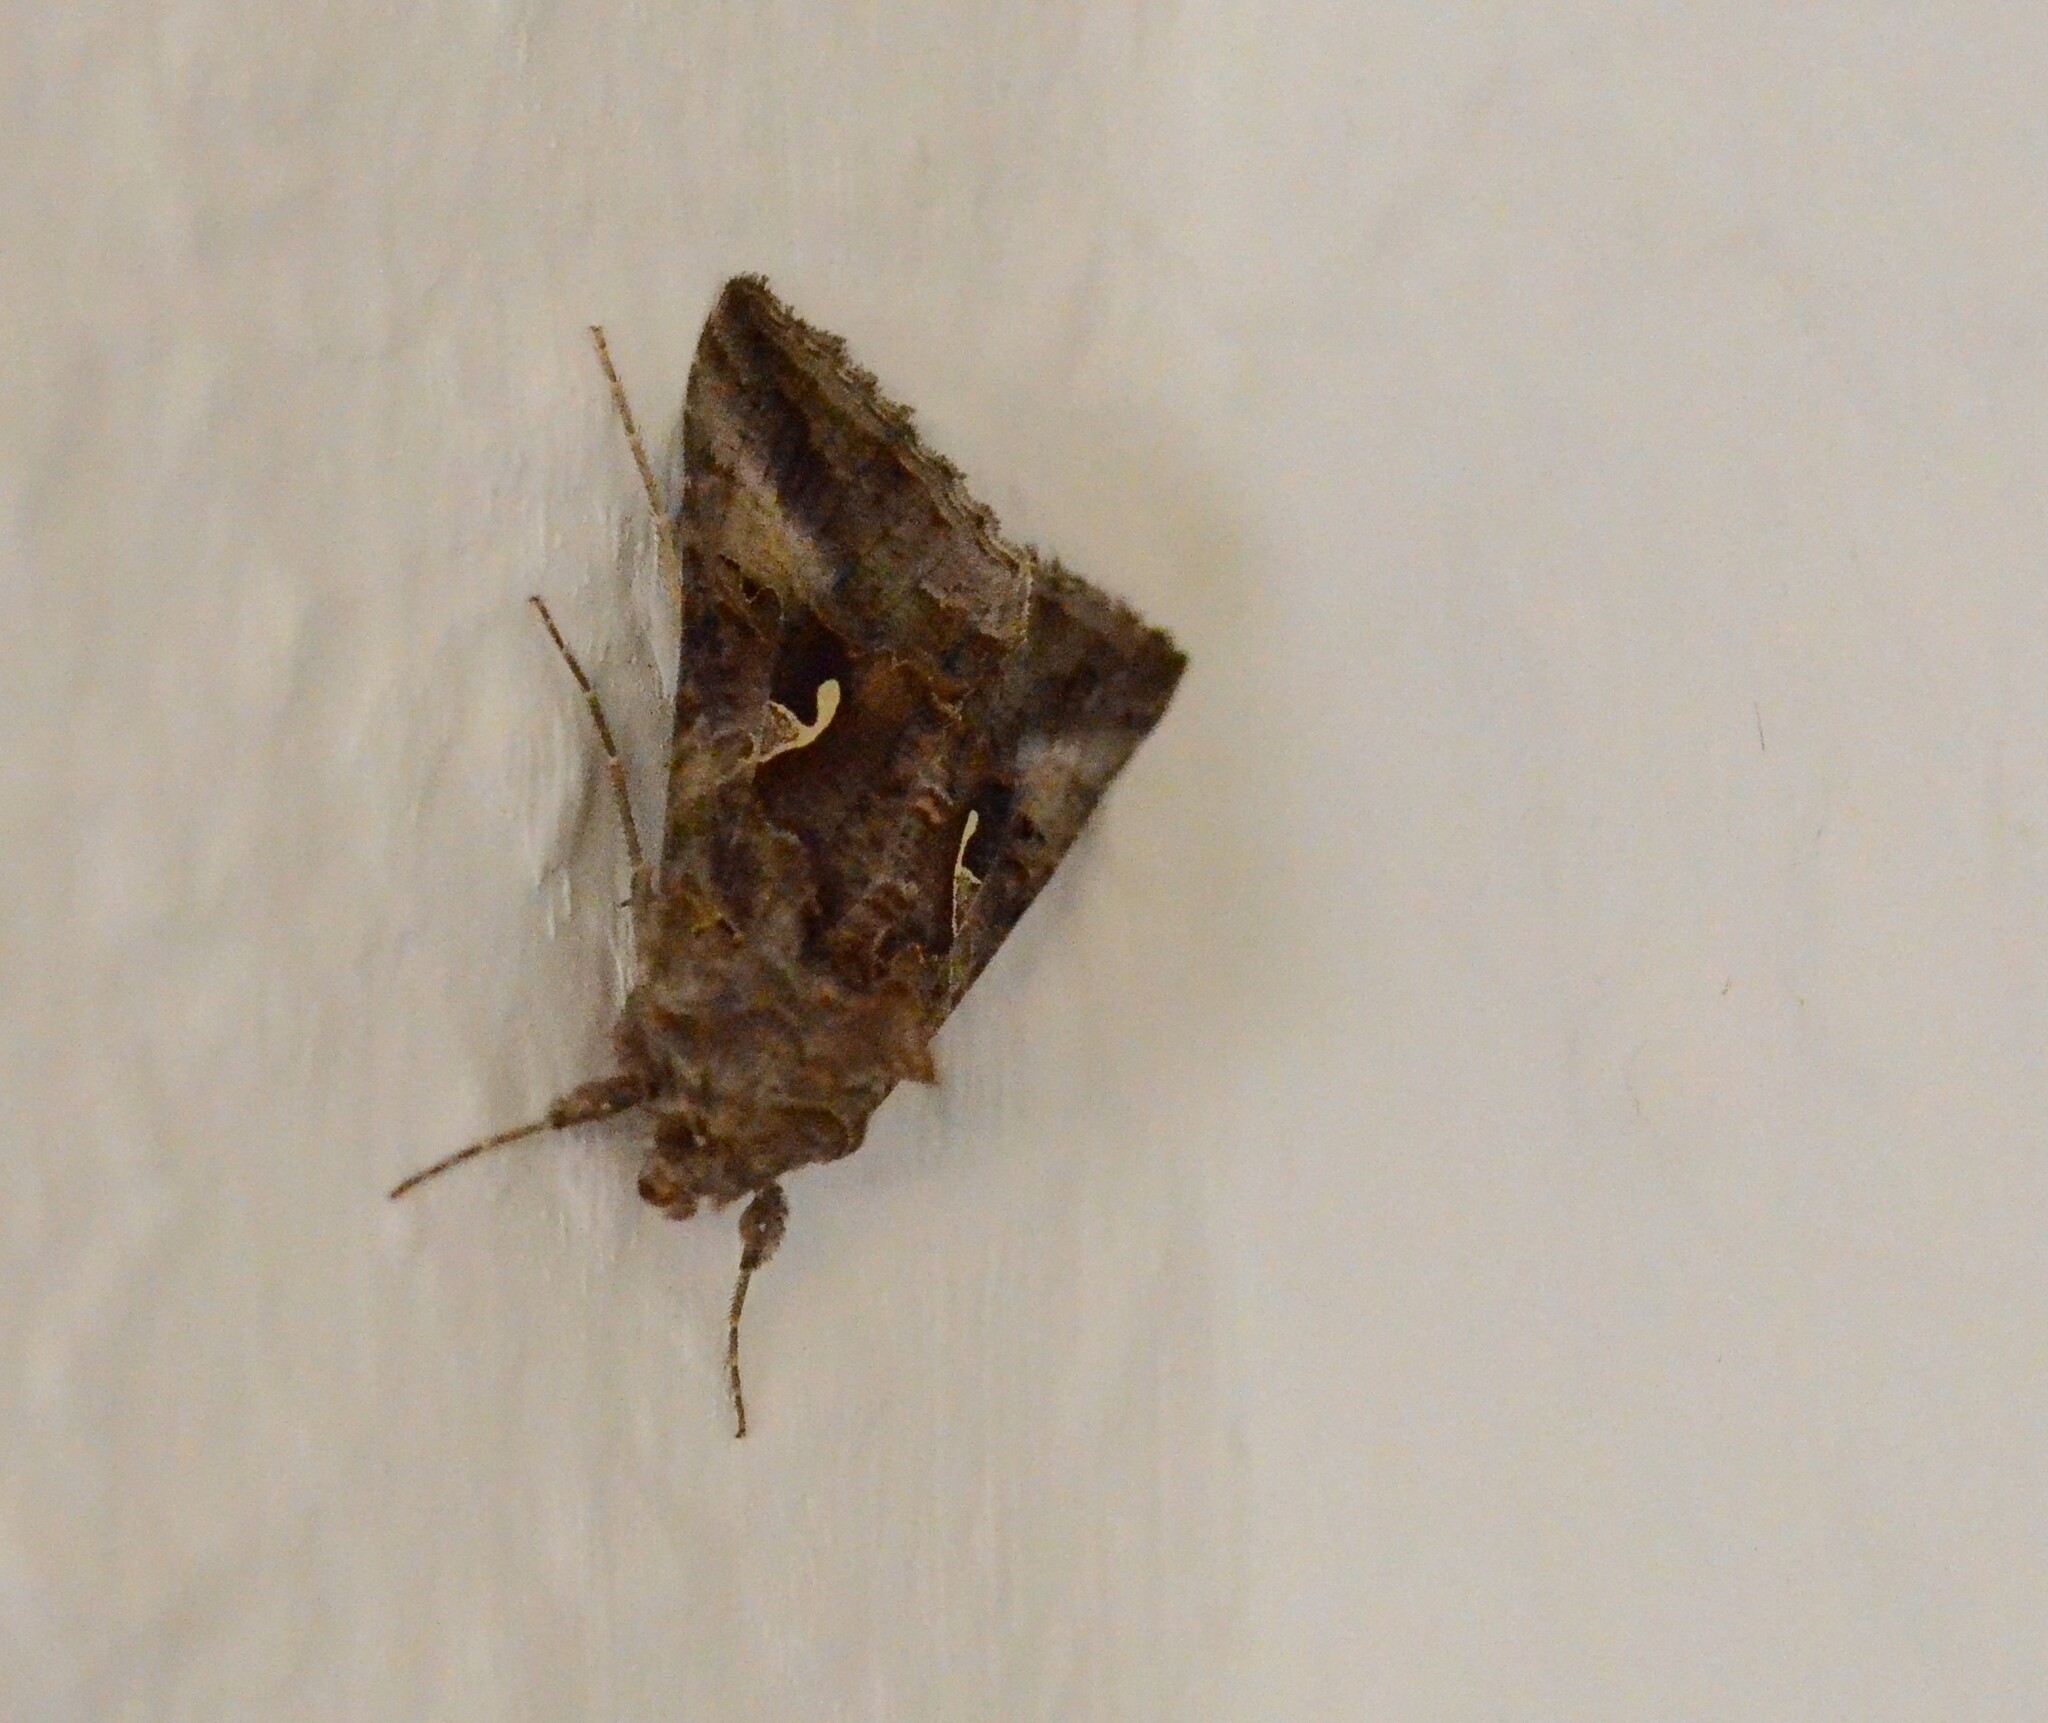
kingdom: Animalia
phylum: Arthropoda
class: Insecta
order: Lepidoptera
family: Noctuidae
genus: Autographa
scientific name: Autographa gamma
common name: Silver y
